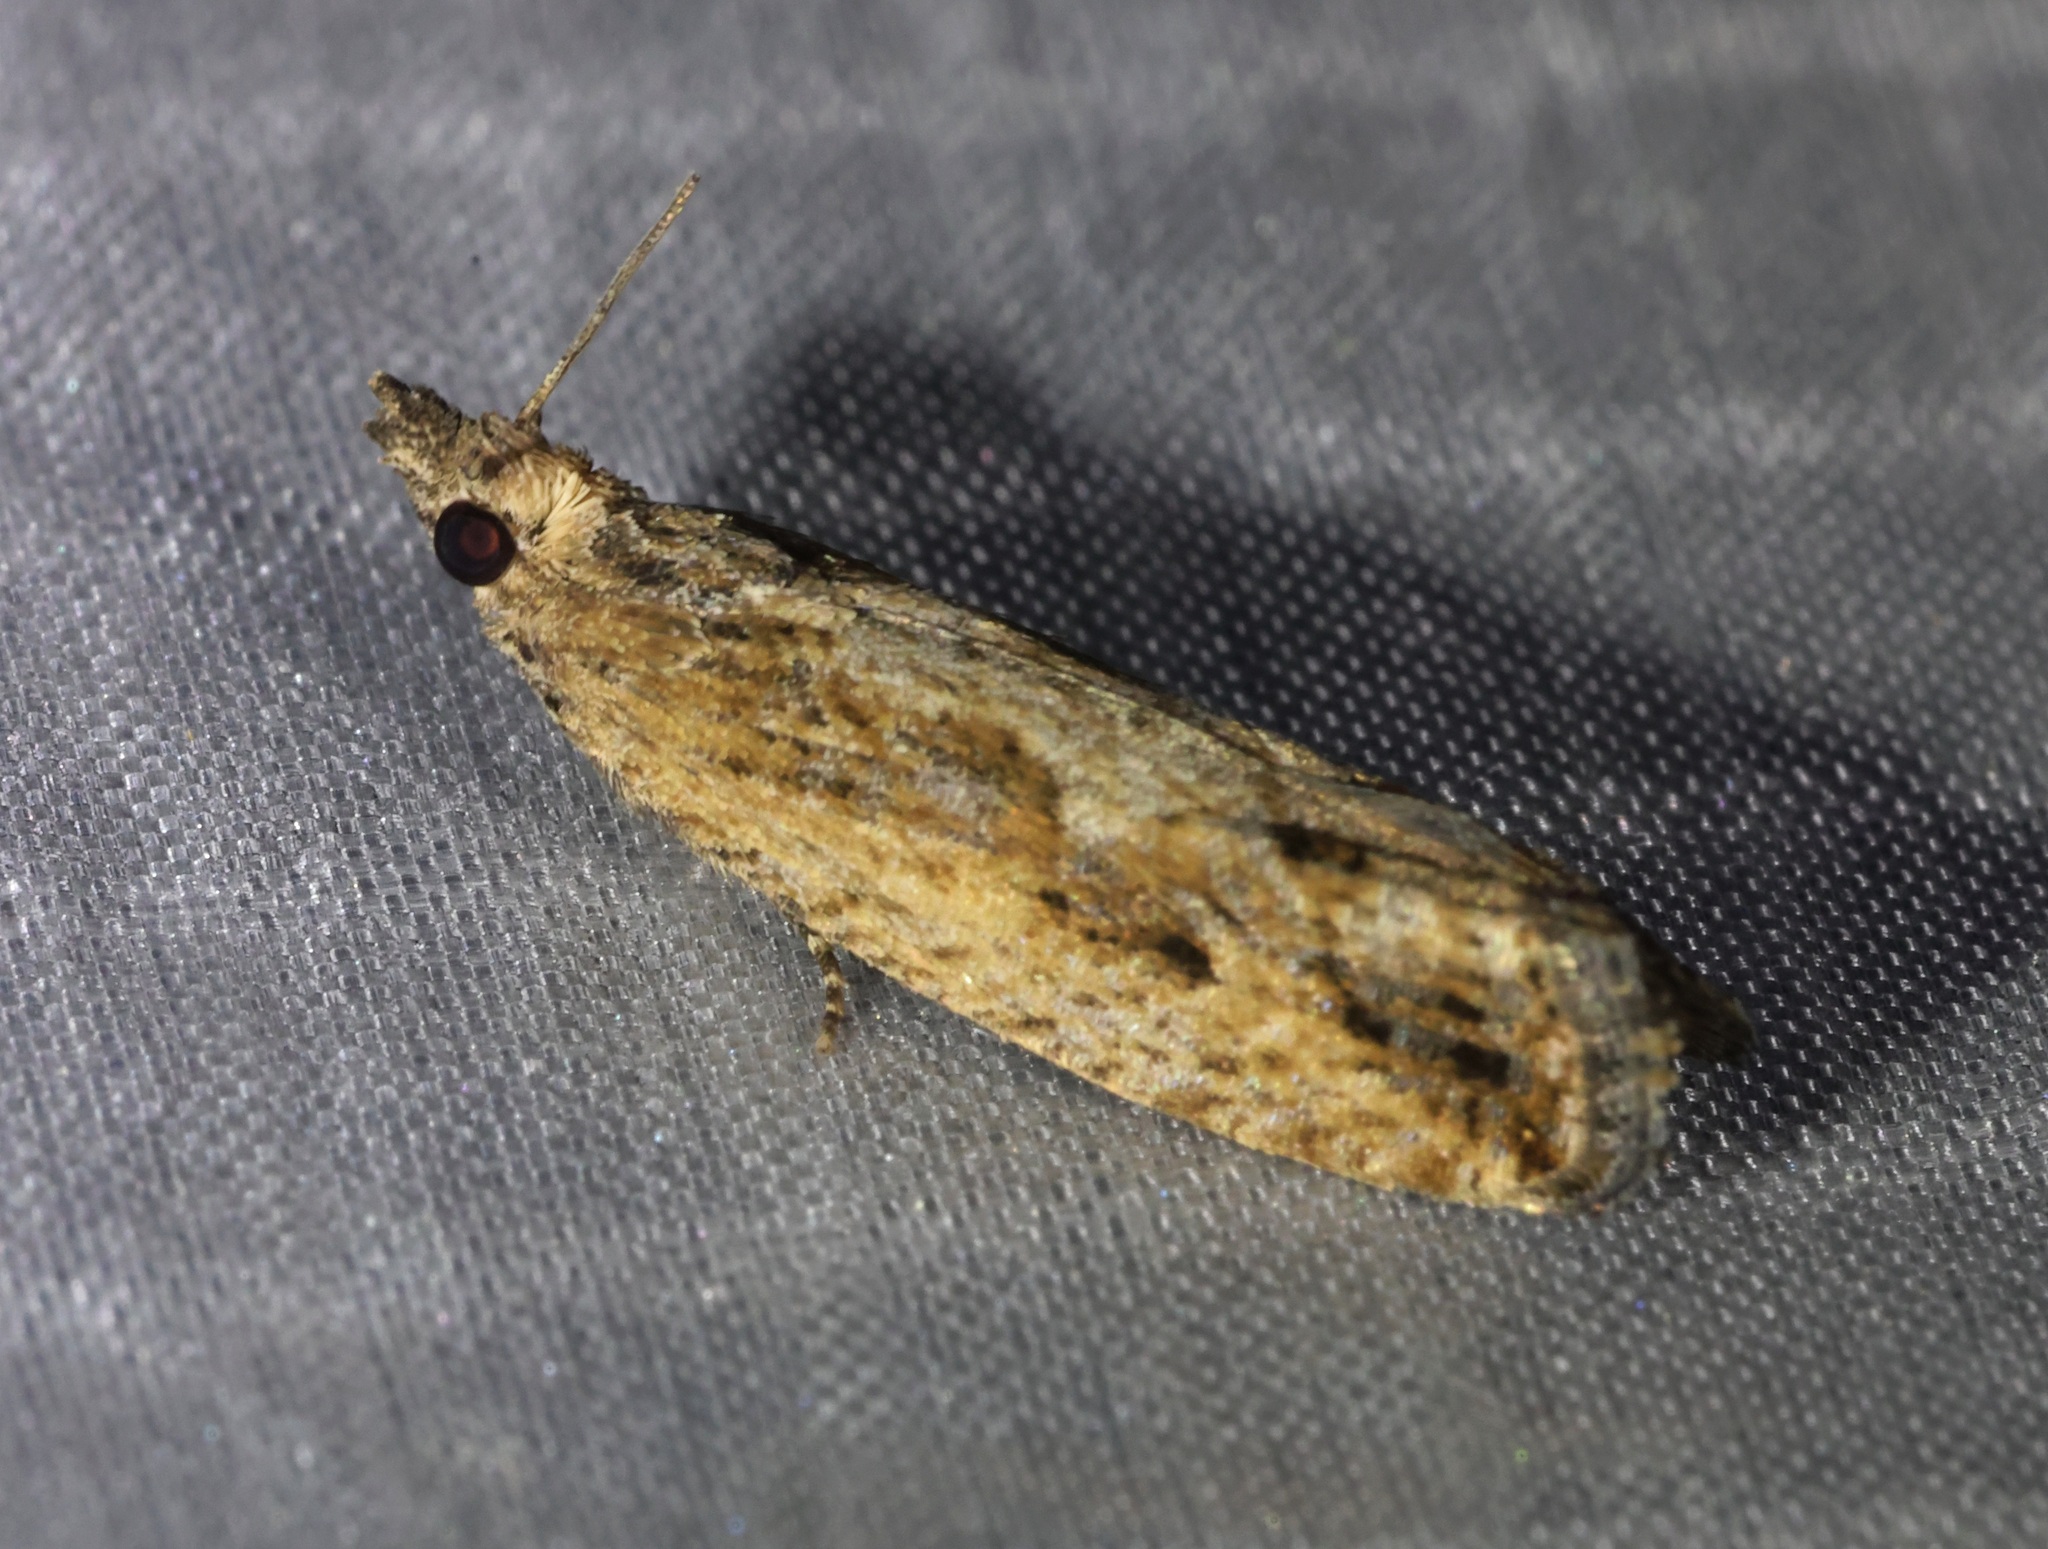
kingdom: Animalia
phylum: Arthropoda
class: Insecta
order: Lepidoptera
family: Tortricidae
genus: Strepsicrates
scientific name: Strepsicrates semicanella
